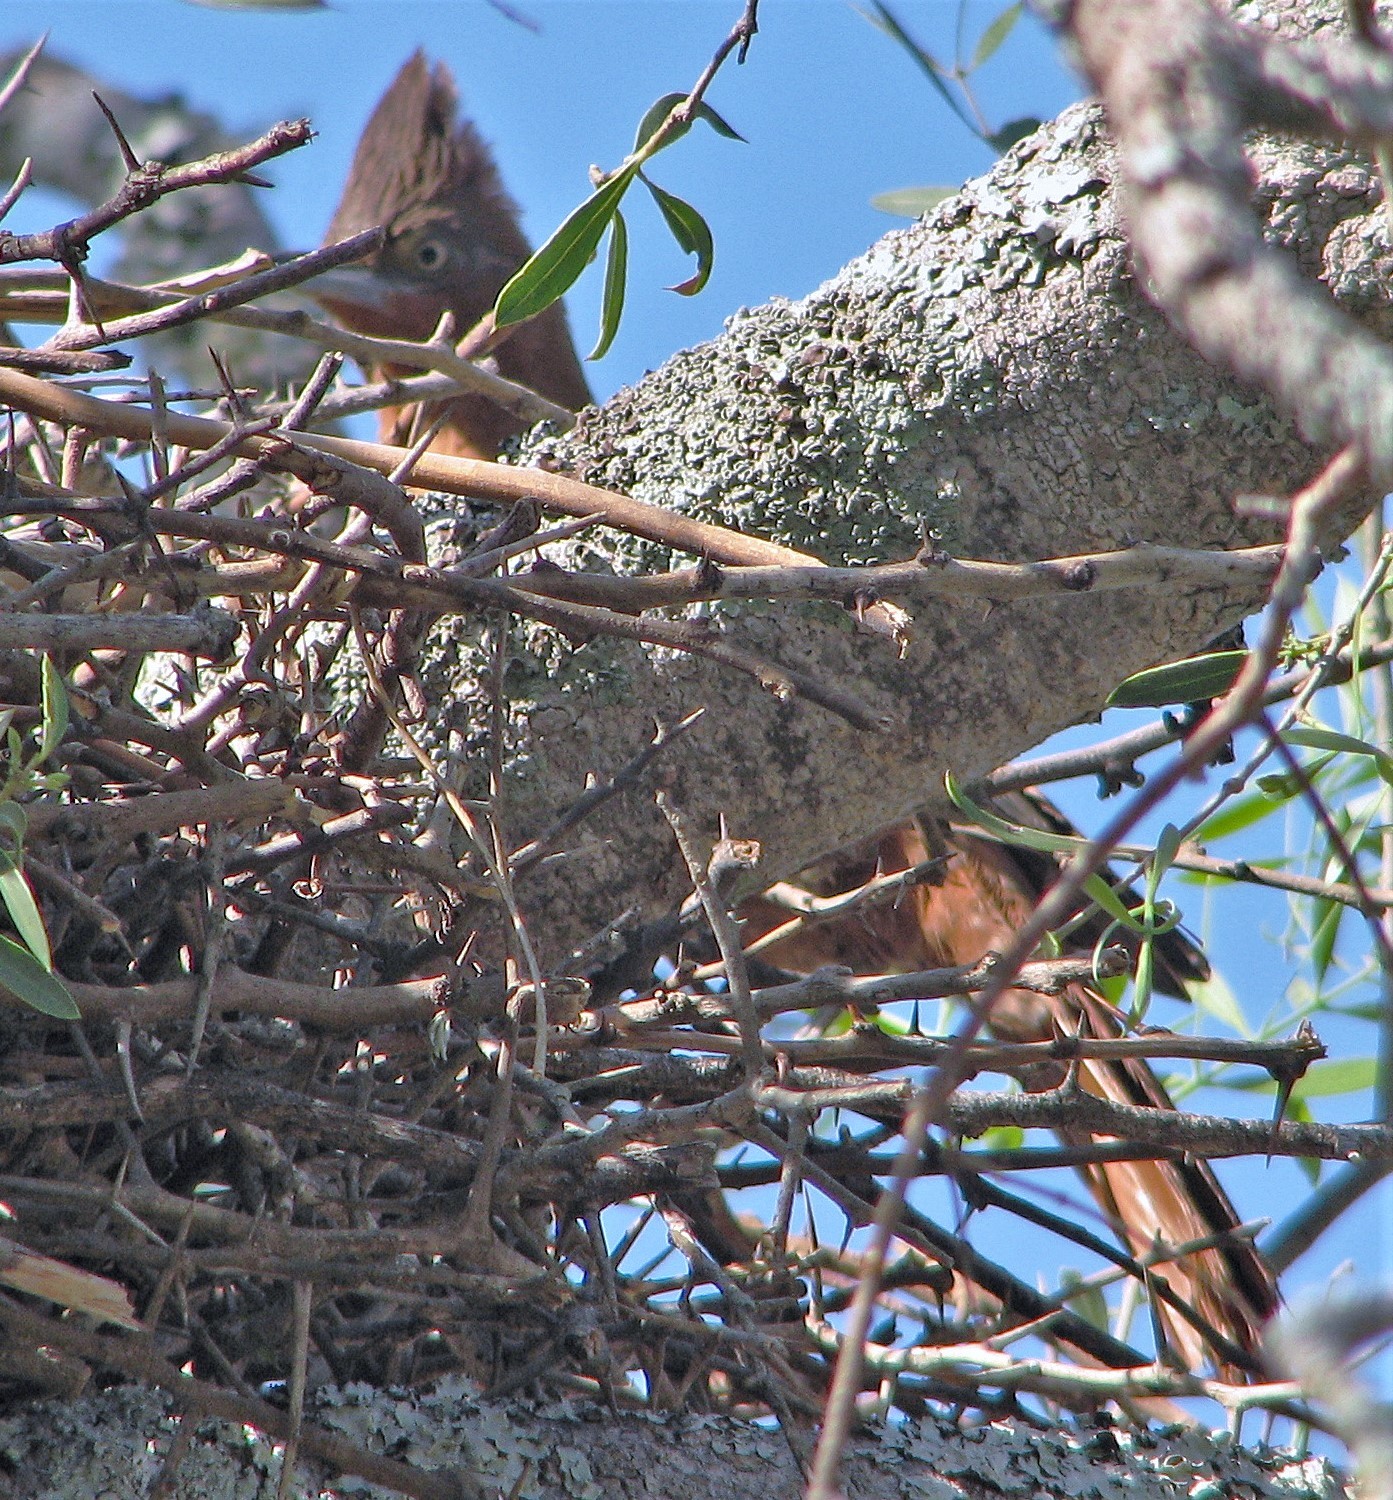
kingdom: Animalia
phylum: Chordata
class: Aves
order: Passeriformes
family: Furnariidae
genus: Pseudoseisura
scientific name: Pseudoseisura lophotes
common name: Brown cacholote
